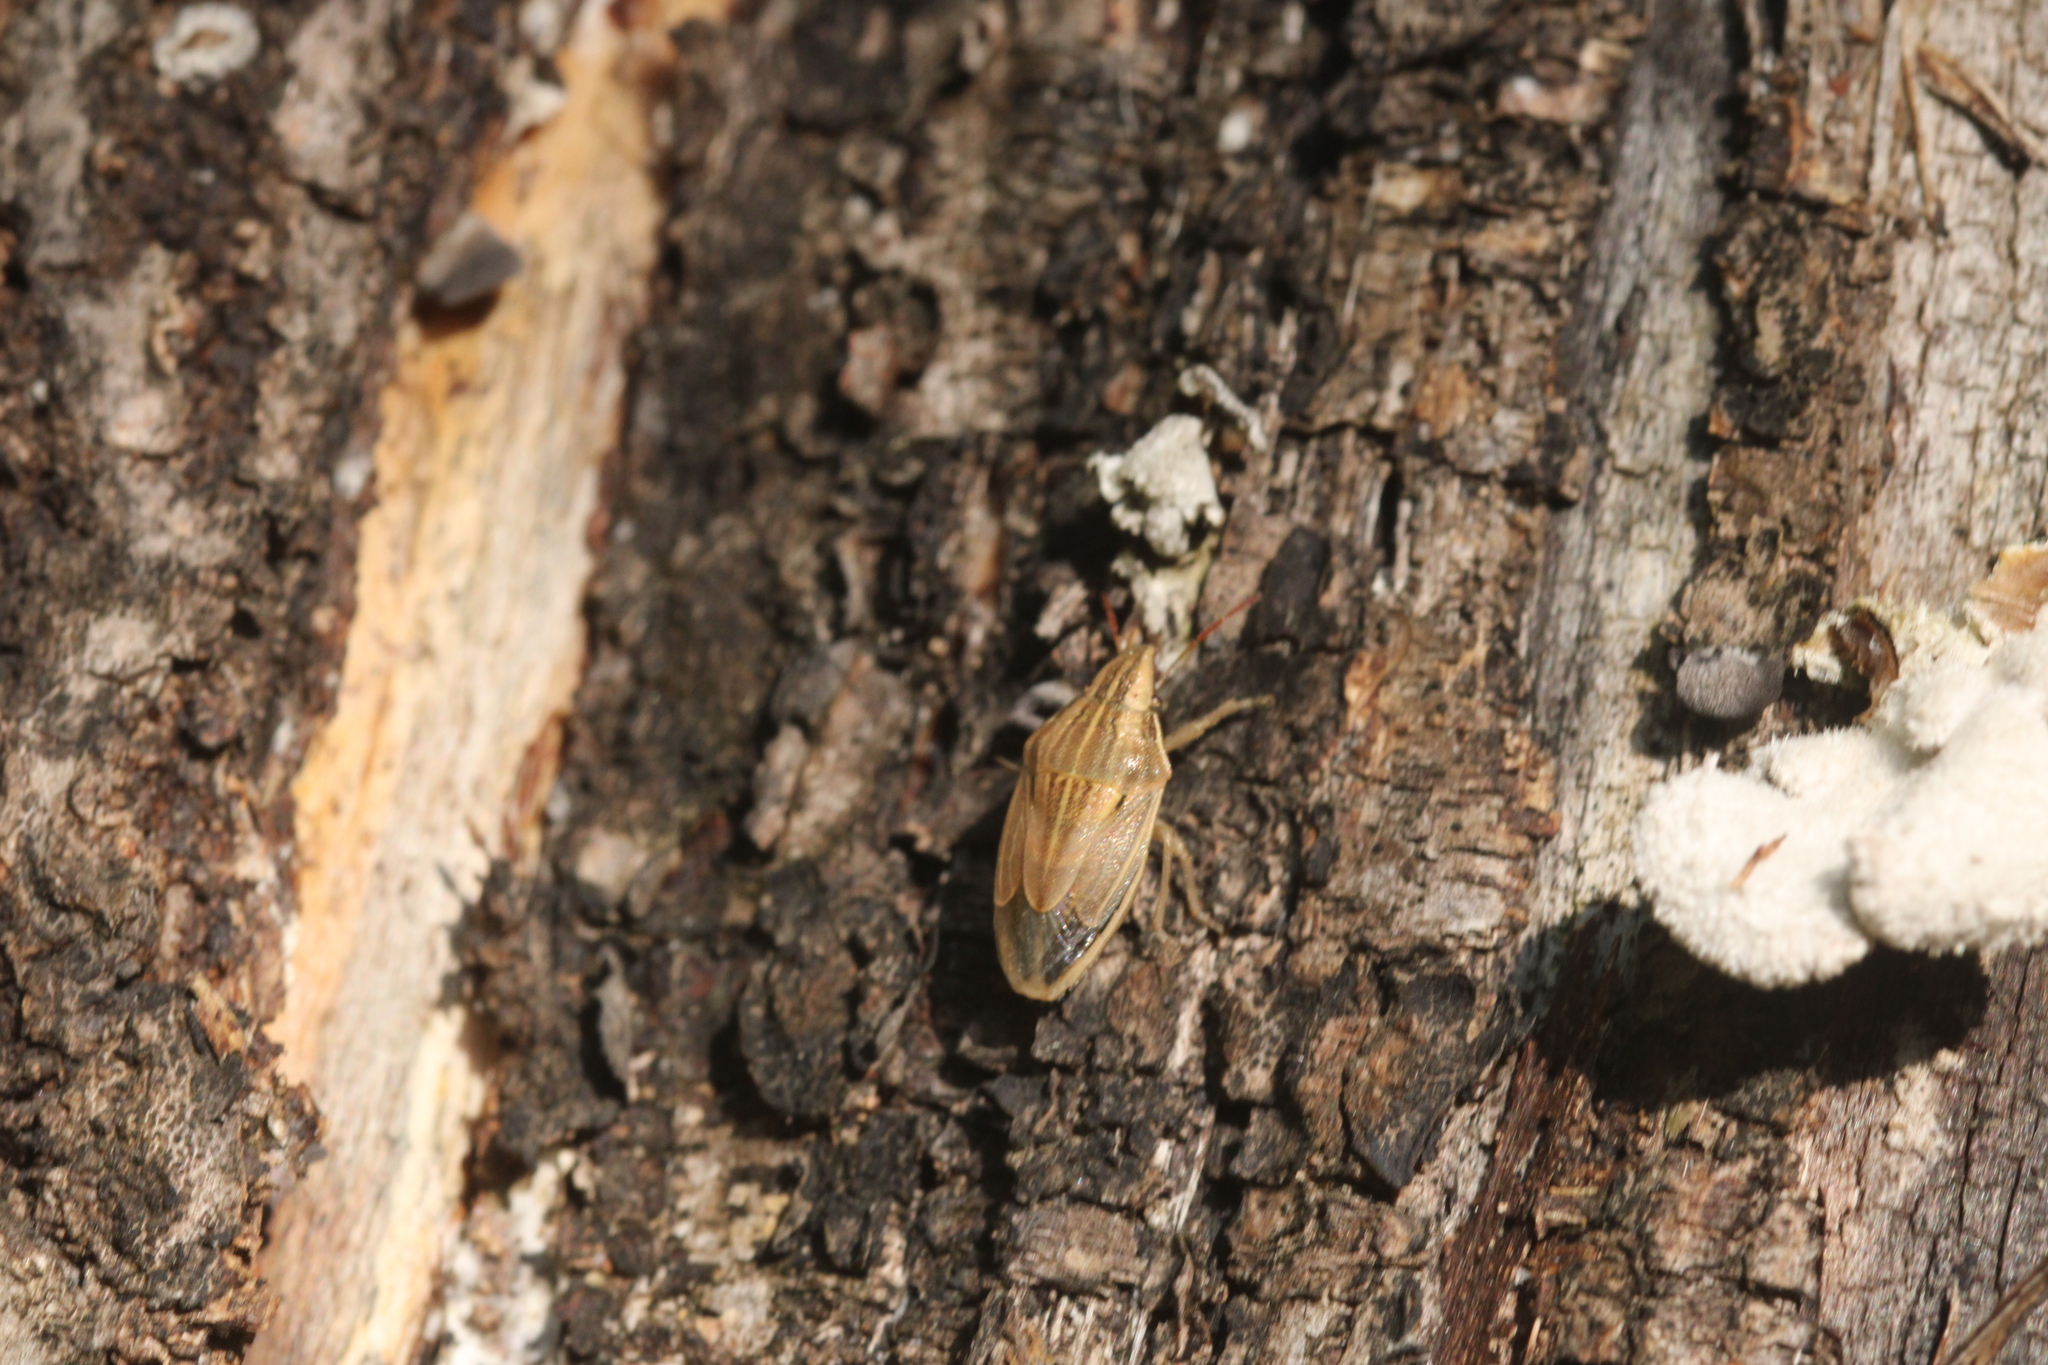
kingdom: Animalia
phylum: Arthropoda
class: Insecta
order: Hemiptera
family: Pentatomidae
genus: Aelia
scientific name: Aelia acuminata
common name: Bishop's mitre
